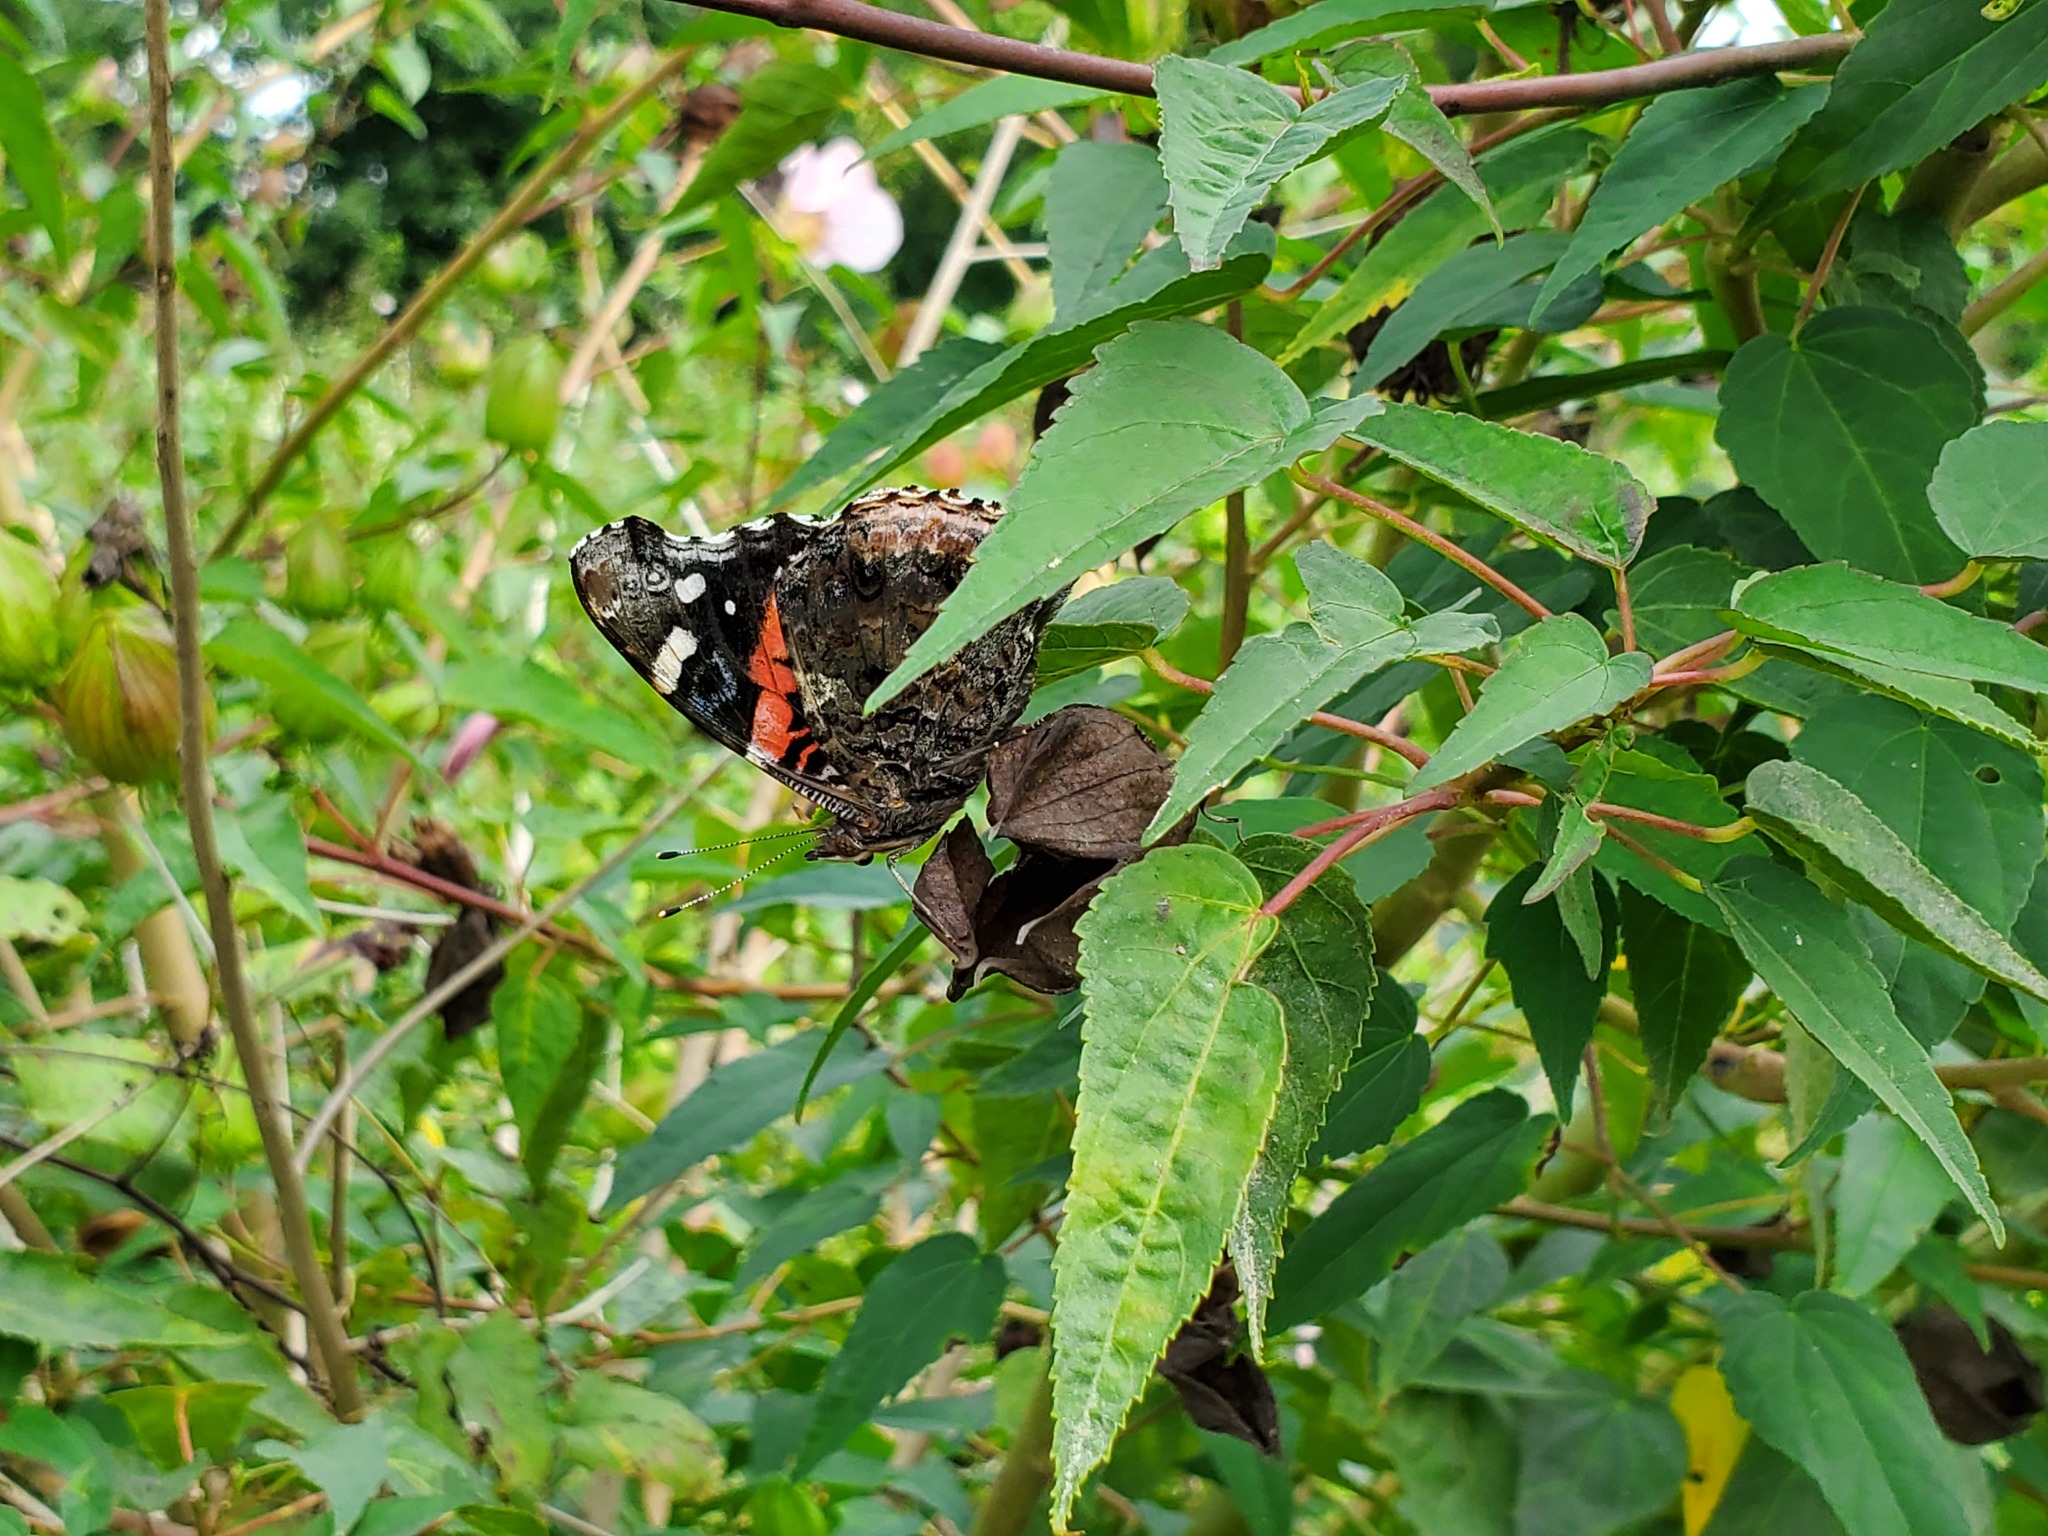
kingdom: Animalia
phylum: Arthropoda
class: Insecta
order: Lepidoptera
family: Nymphalidae
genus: Vanessa
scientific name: Vanessa atalanta
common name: Red admiral
